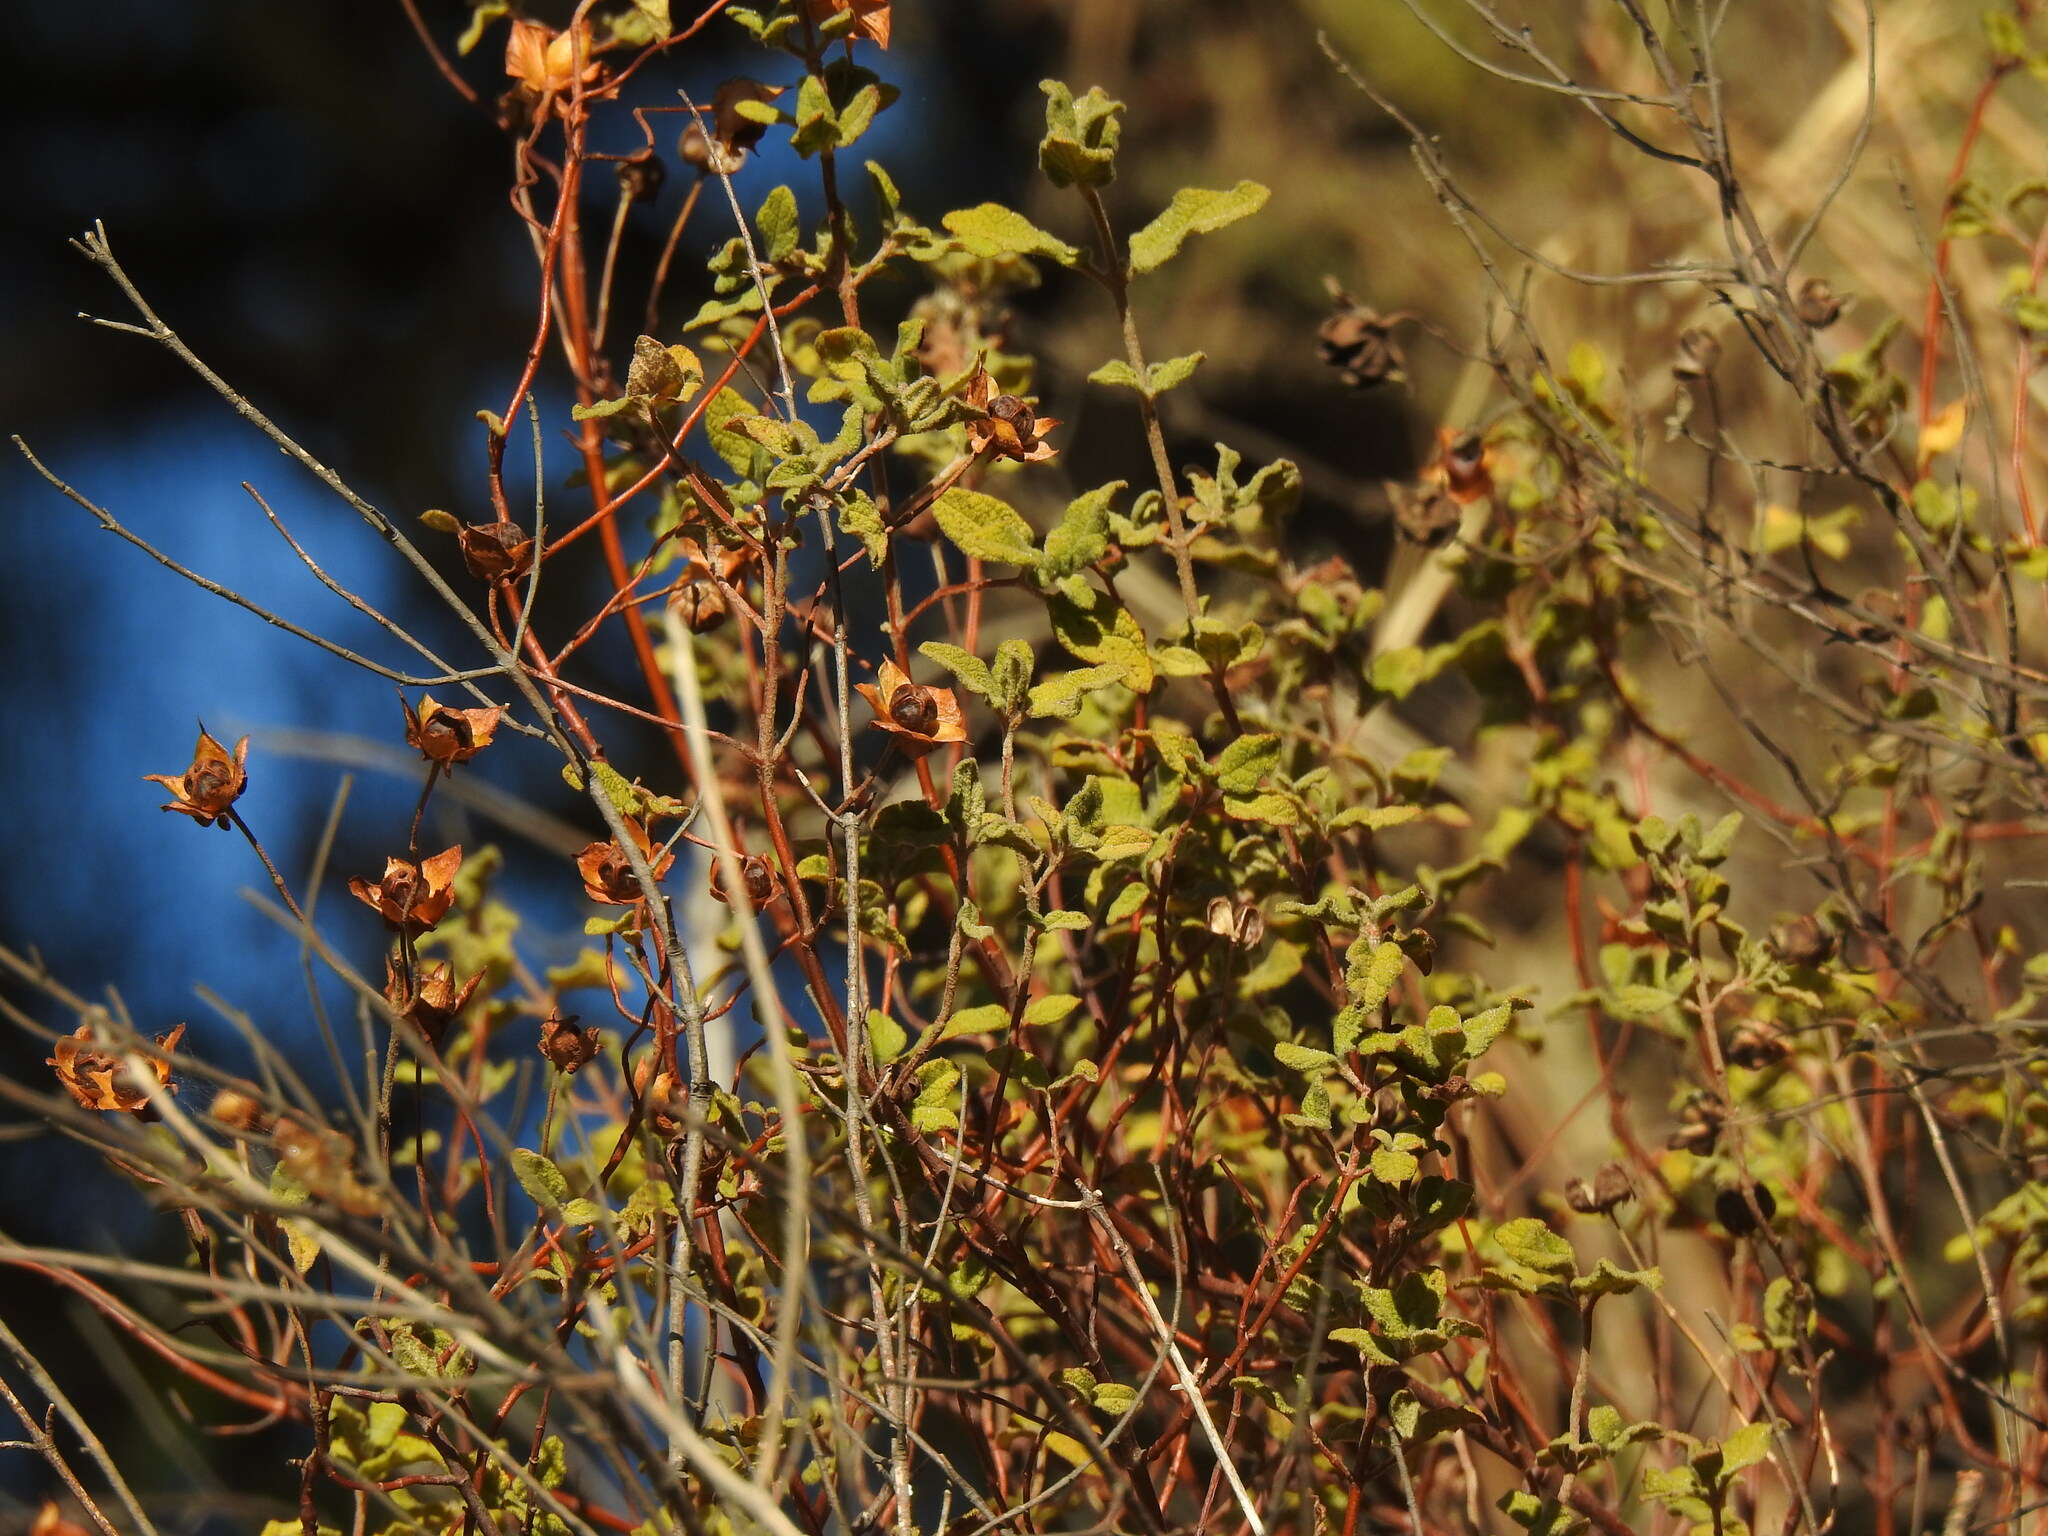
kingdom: Plantae
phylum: Tracheophyta
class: Magnoliopsida
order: Malvales
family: Cistaceae
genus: Cistus
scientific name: Cistus salviifolius
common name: Salvia cistus
